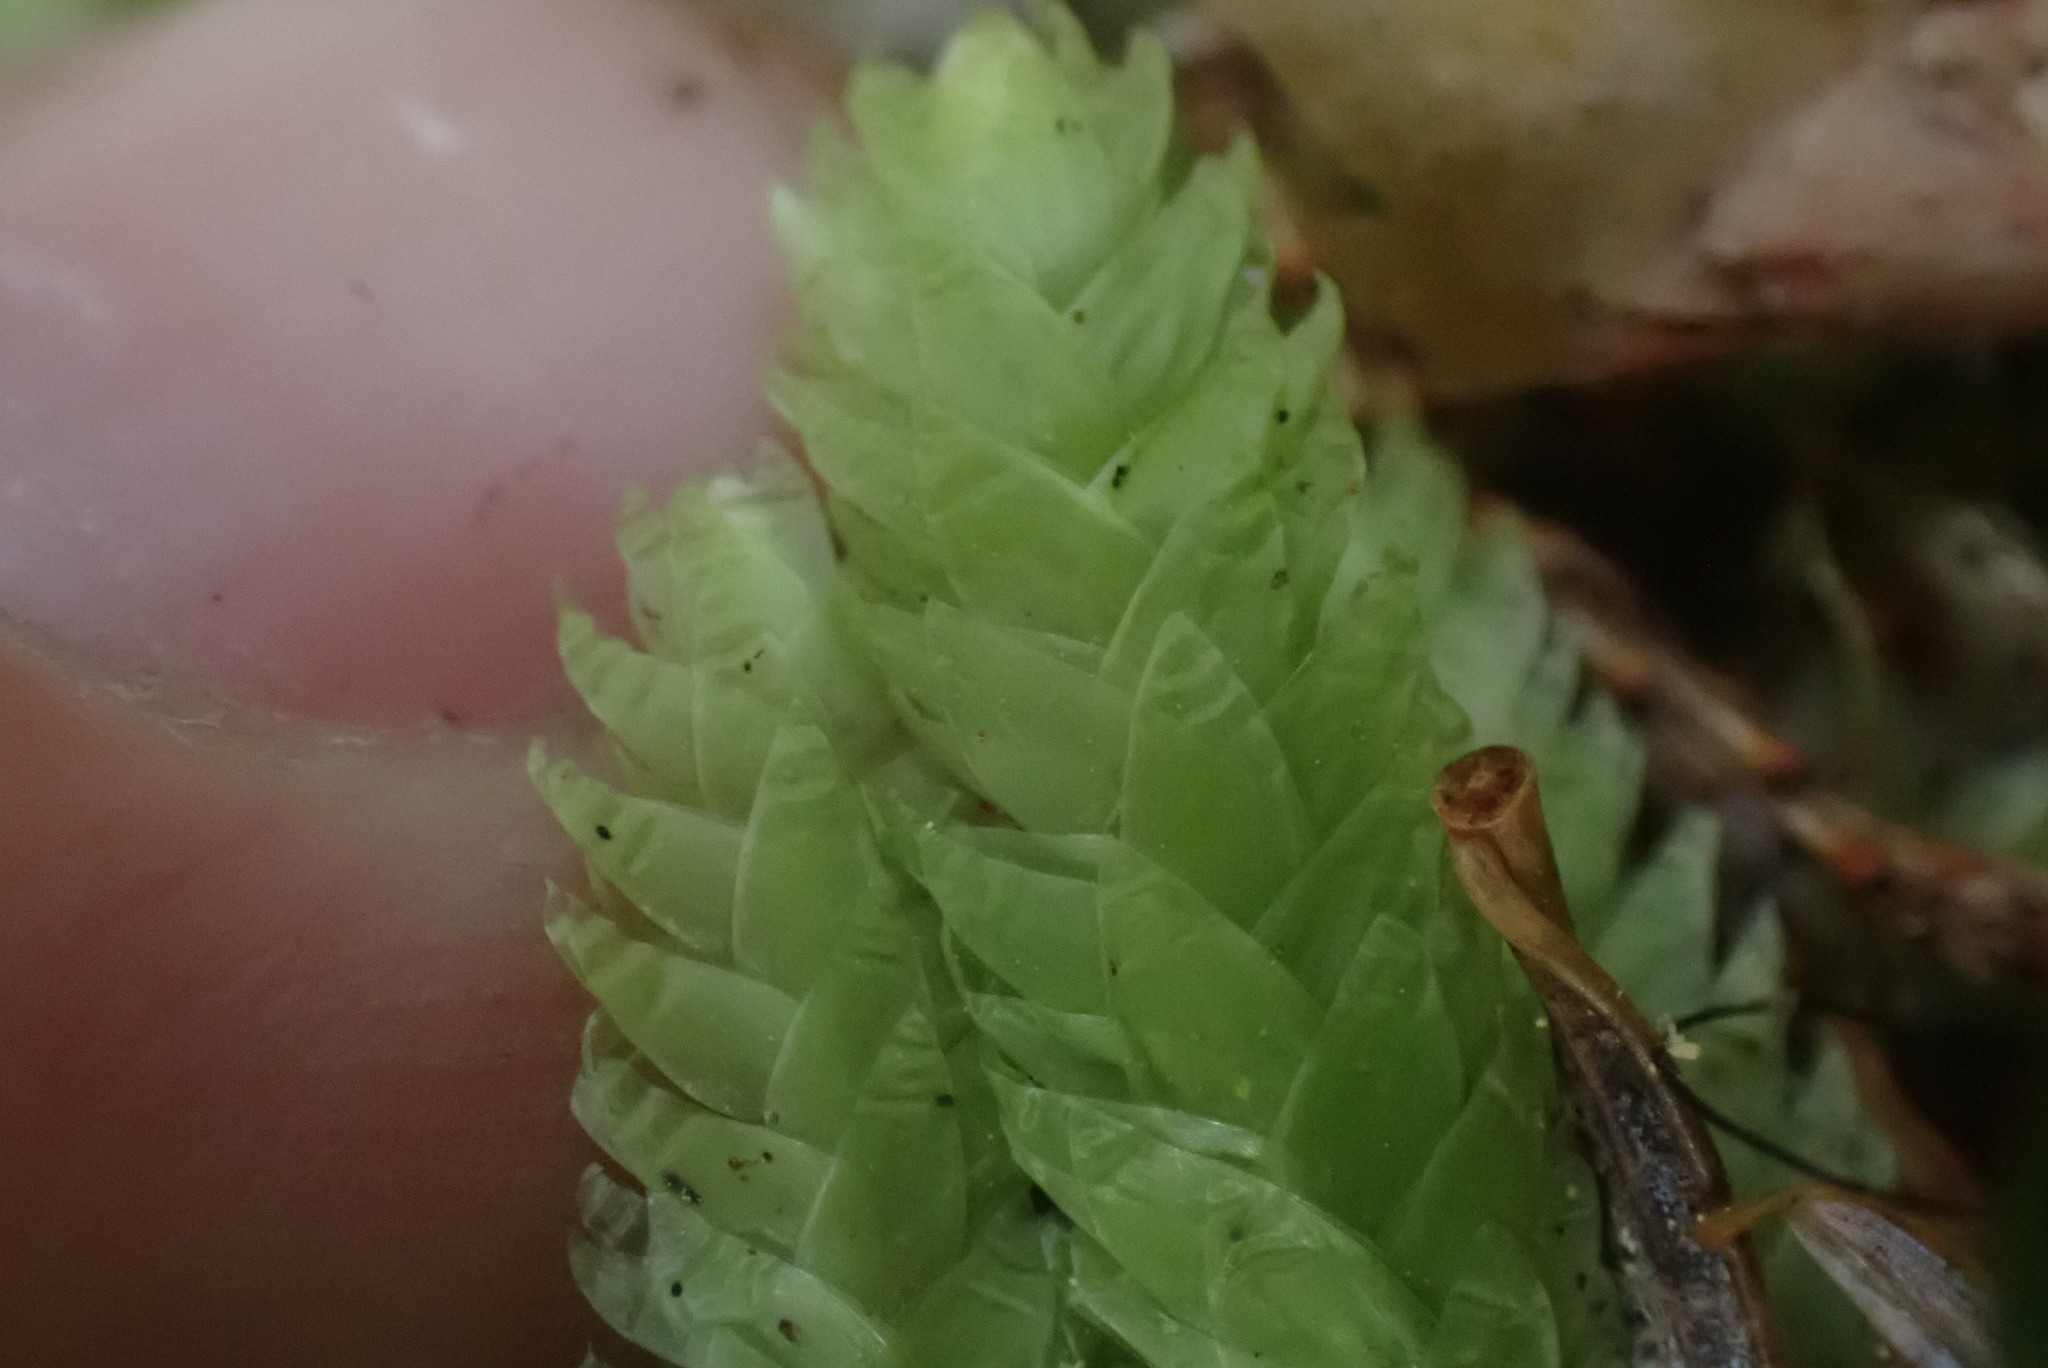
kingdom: Plantae
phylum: Bryophyta
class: Bryopsida
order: Hypnales
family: Plagiotheciaceae
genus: Plagiothecium
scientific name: Plagiothecium undulatum
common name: Waved silk-moss
